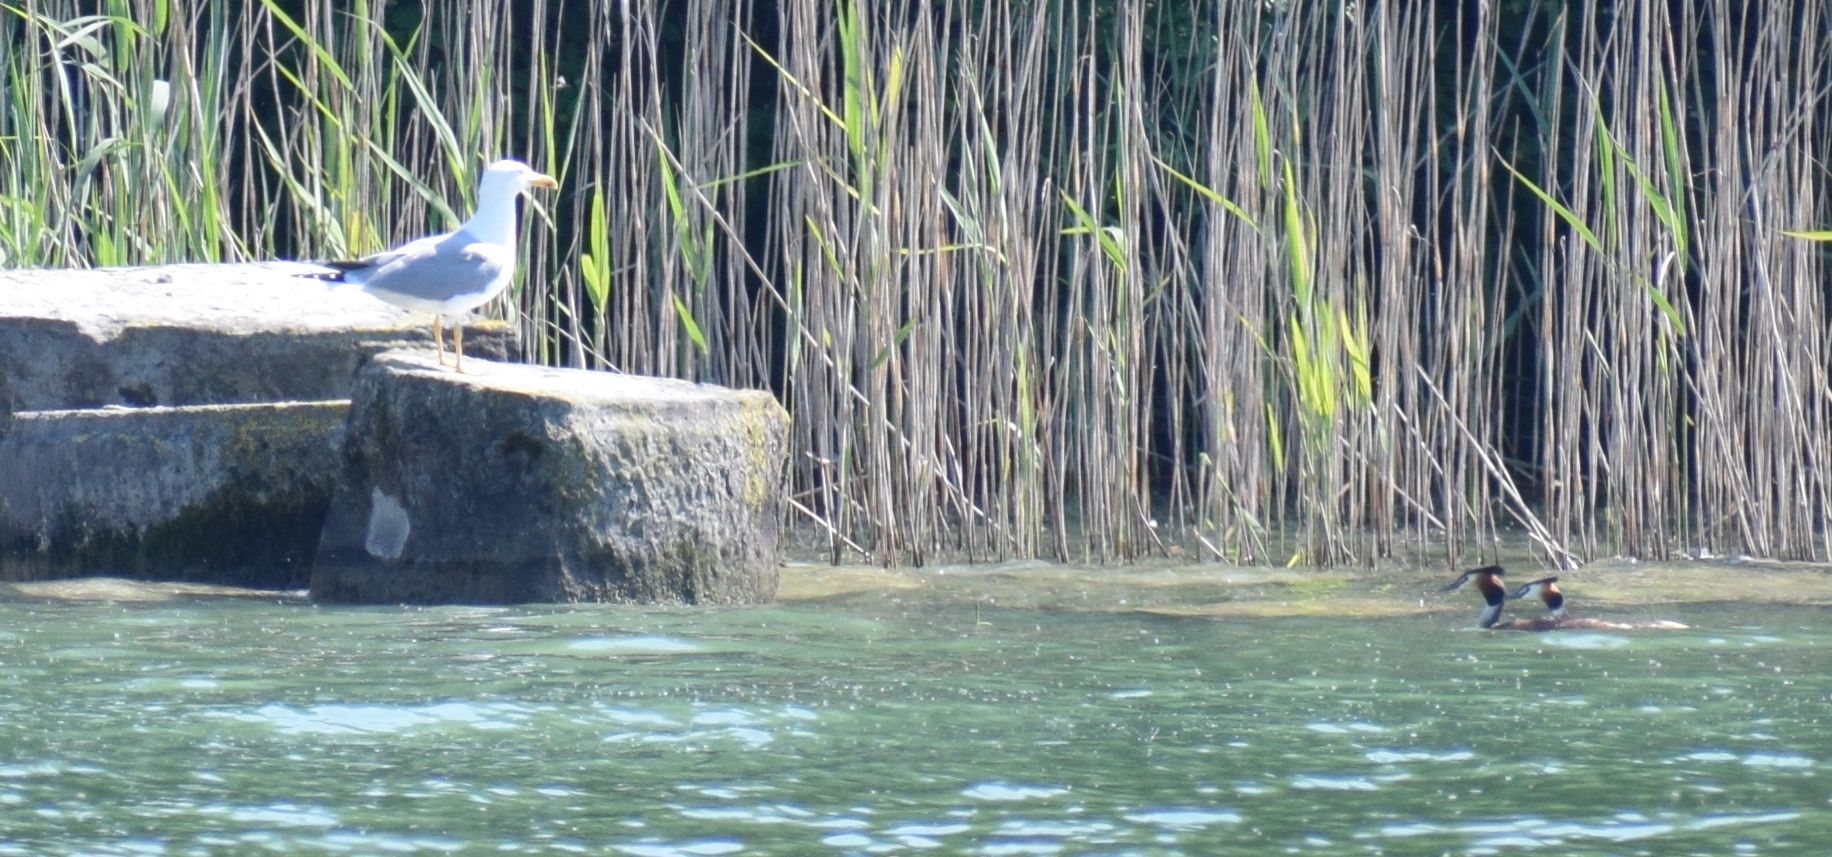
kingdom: Animalia
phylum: Chordata
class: Aves
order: Charadriiformes
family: Laridae
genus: Larus
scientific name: Larus michahellis
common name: Yellow-legged gull
